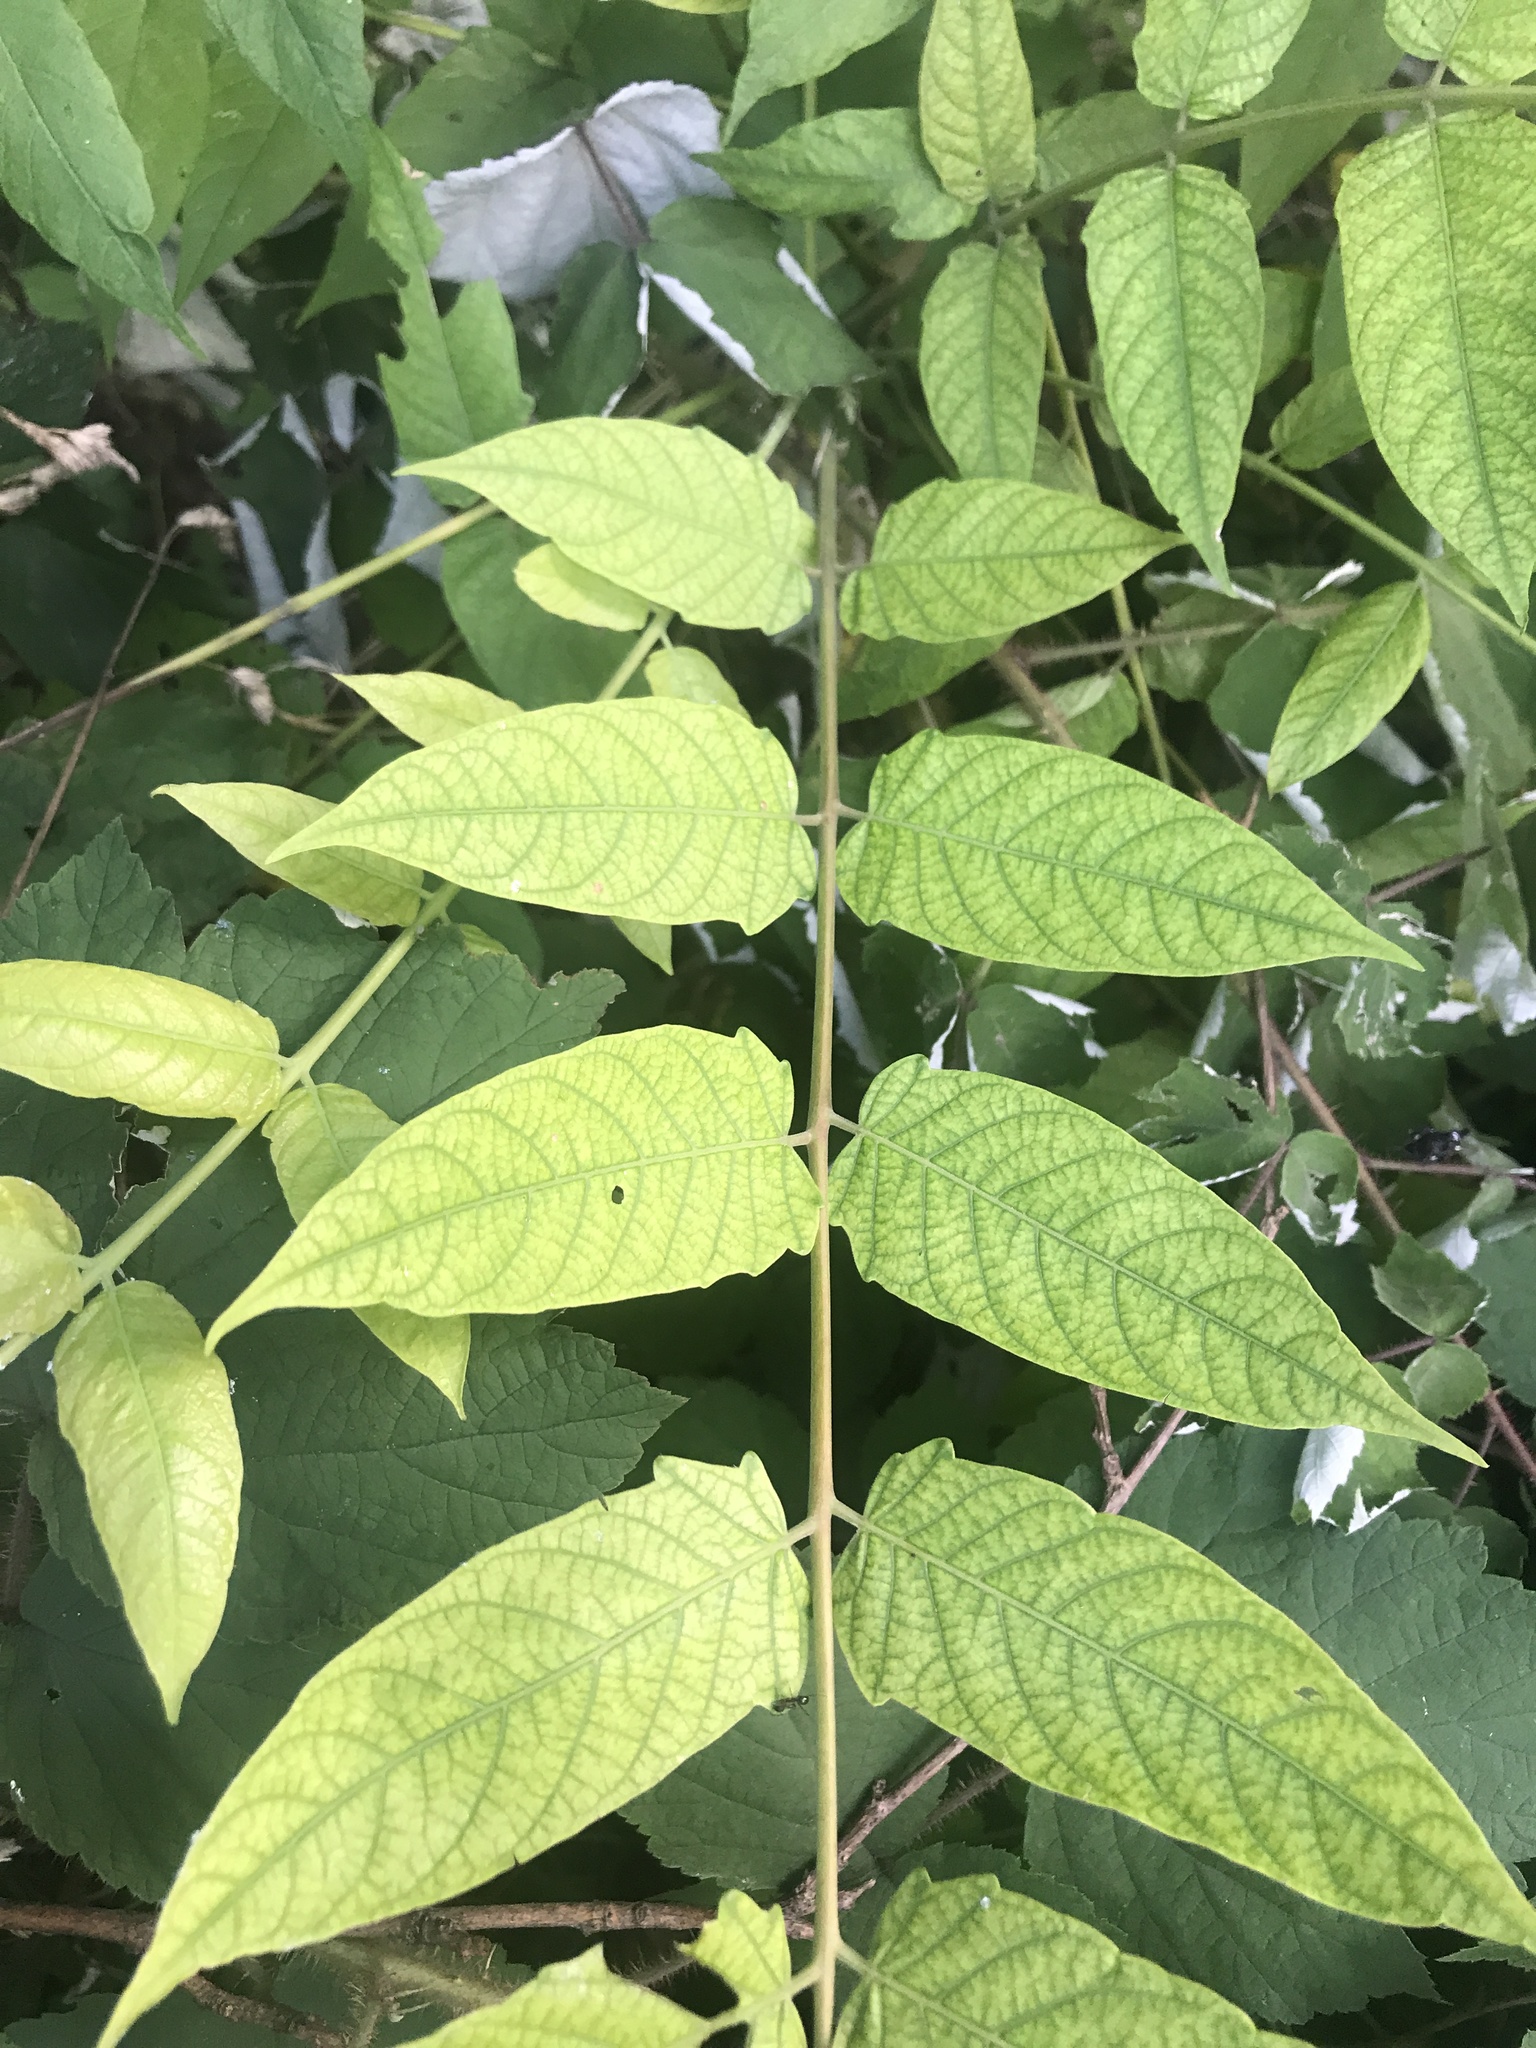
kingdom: Plantae
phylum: Tracheophyta
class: Magnoliopsida
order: Sapindales
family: Simaroubaceae
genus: Ailanthus
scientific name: Ailanthus altissima
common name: Tree-of-heaven
